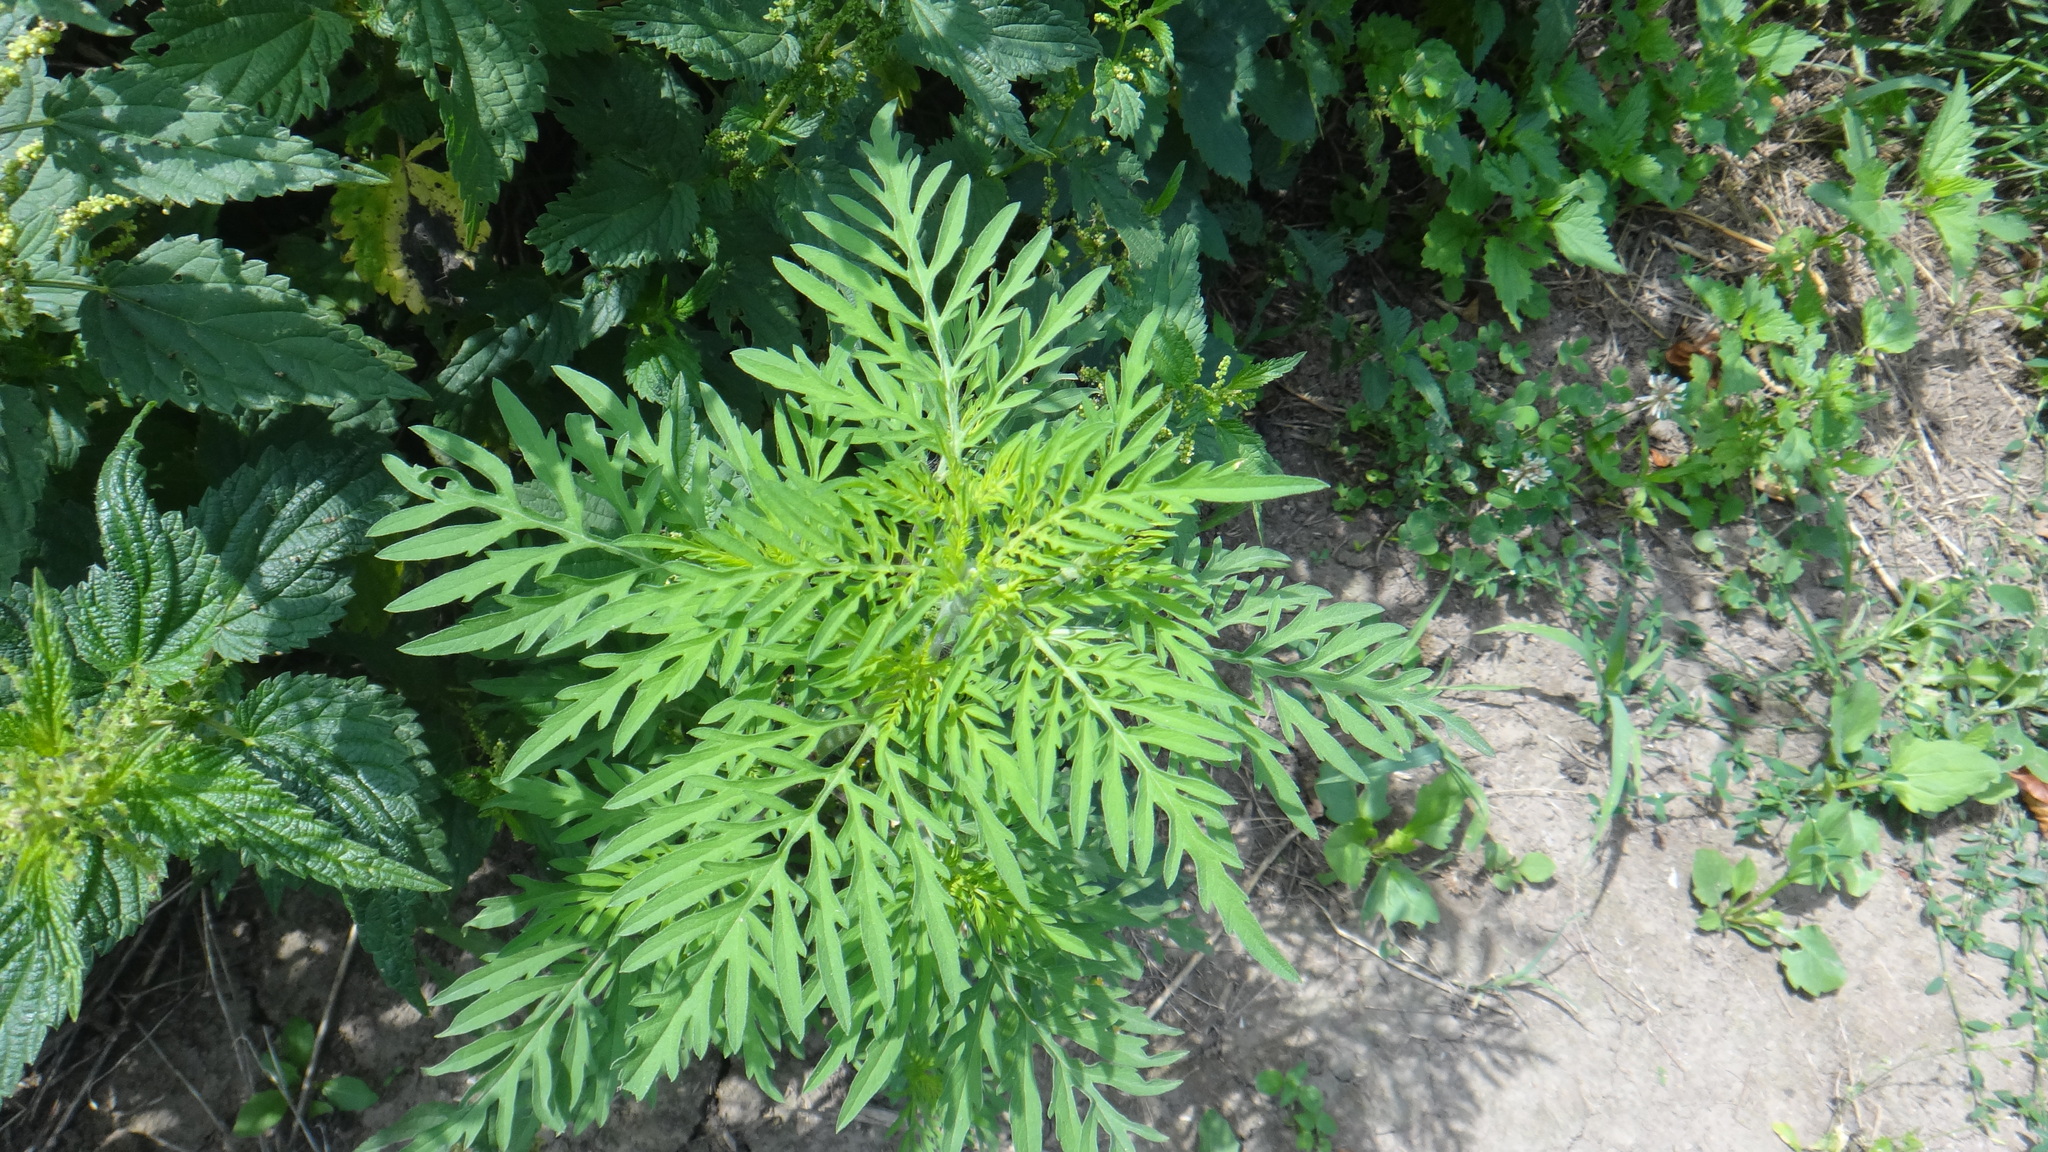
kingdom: Plantae
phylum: Tracheophyta
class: Magnoliopsida
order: Asterales
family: Asteraceae
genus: Ambrosia
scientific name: Ambrosia artemisiifolia
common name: Annual ragweed
